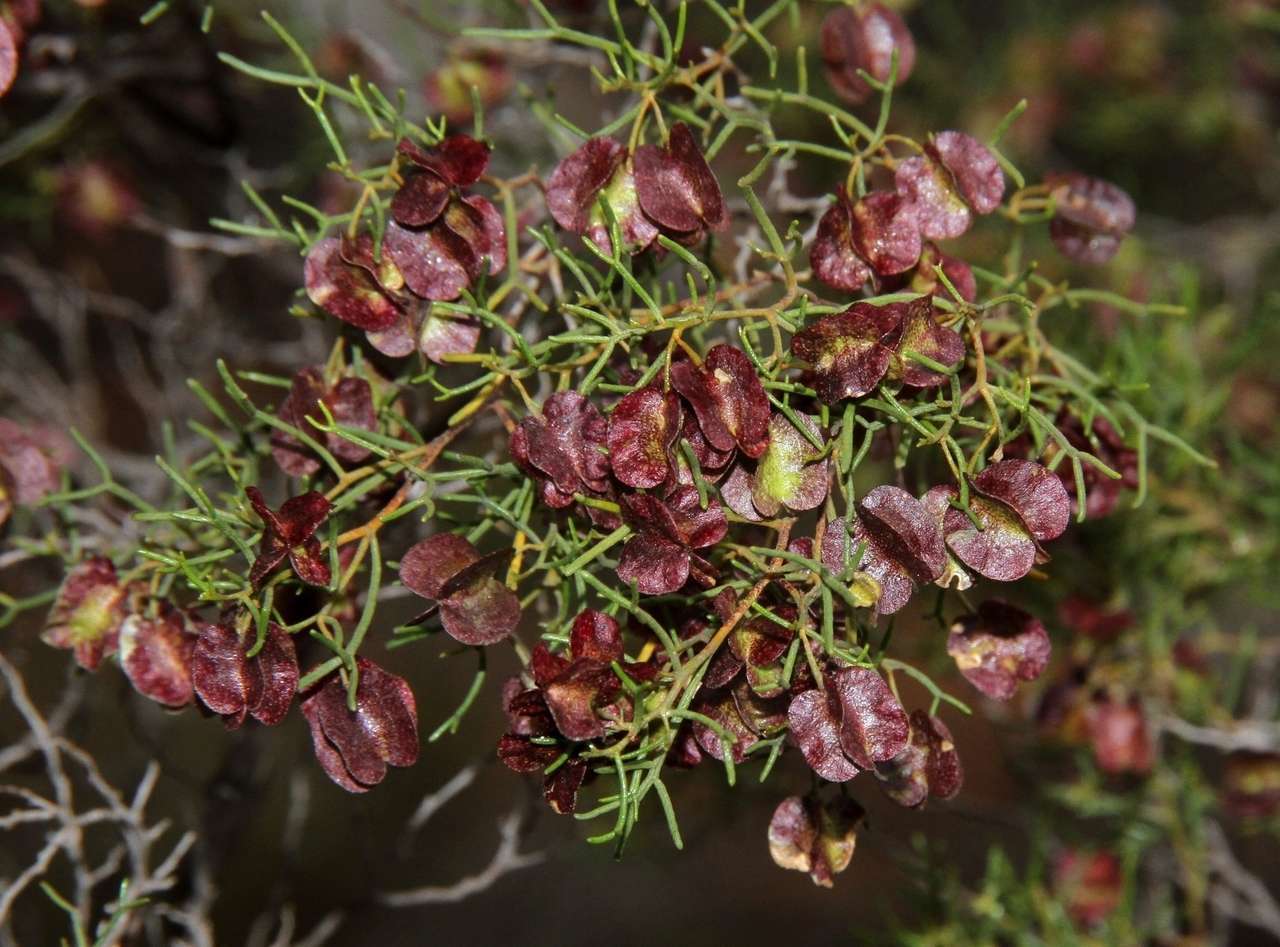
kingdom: Plantae
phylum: Tracheophyta
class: Magnoliopsida
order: Sapindales
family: Sapindaceae
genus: Dodonaea
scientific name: Dodonaea stenozyga
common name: Desert hopbush
